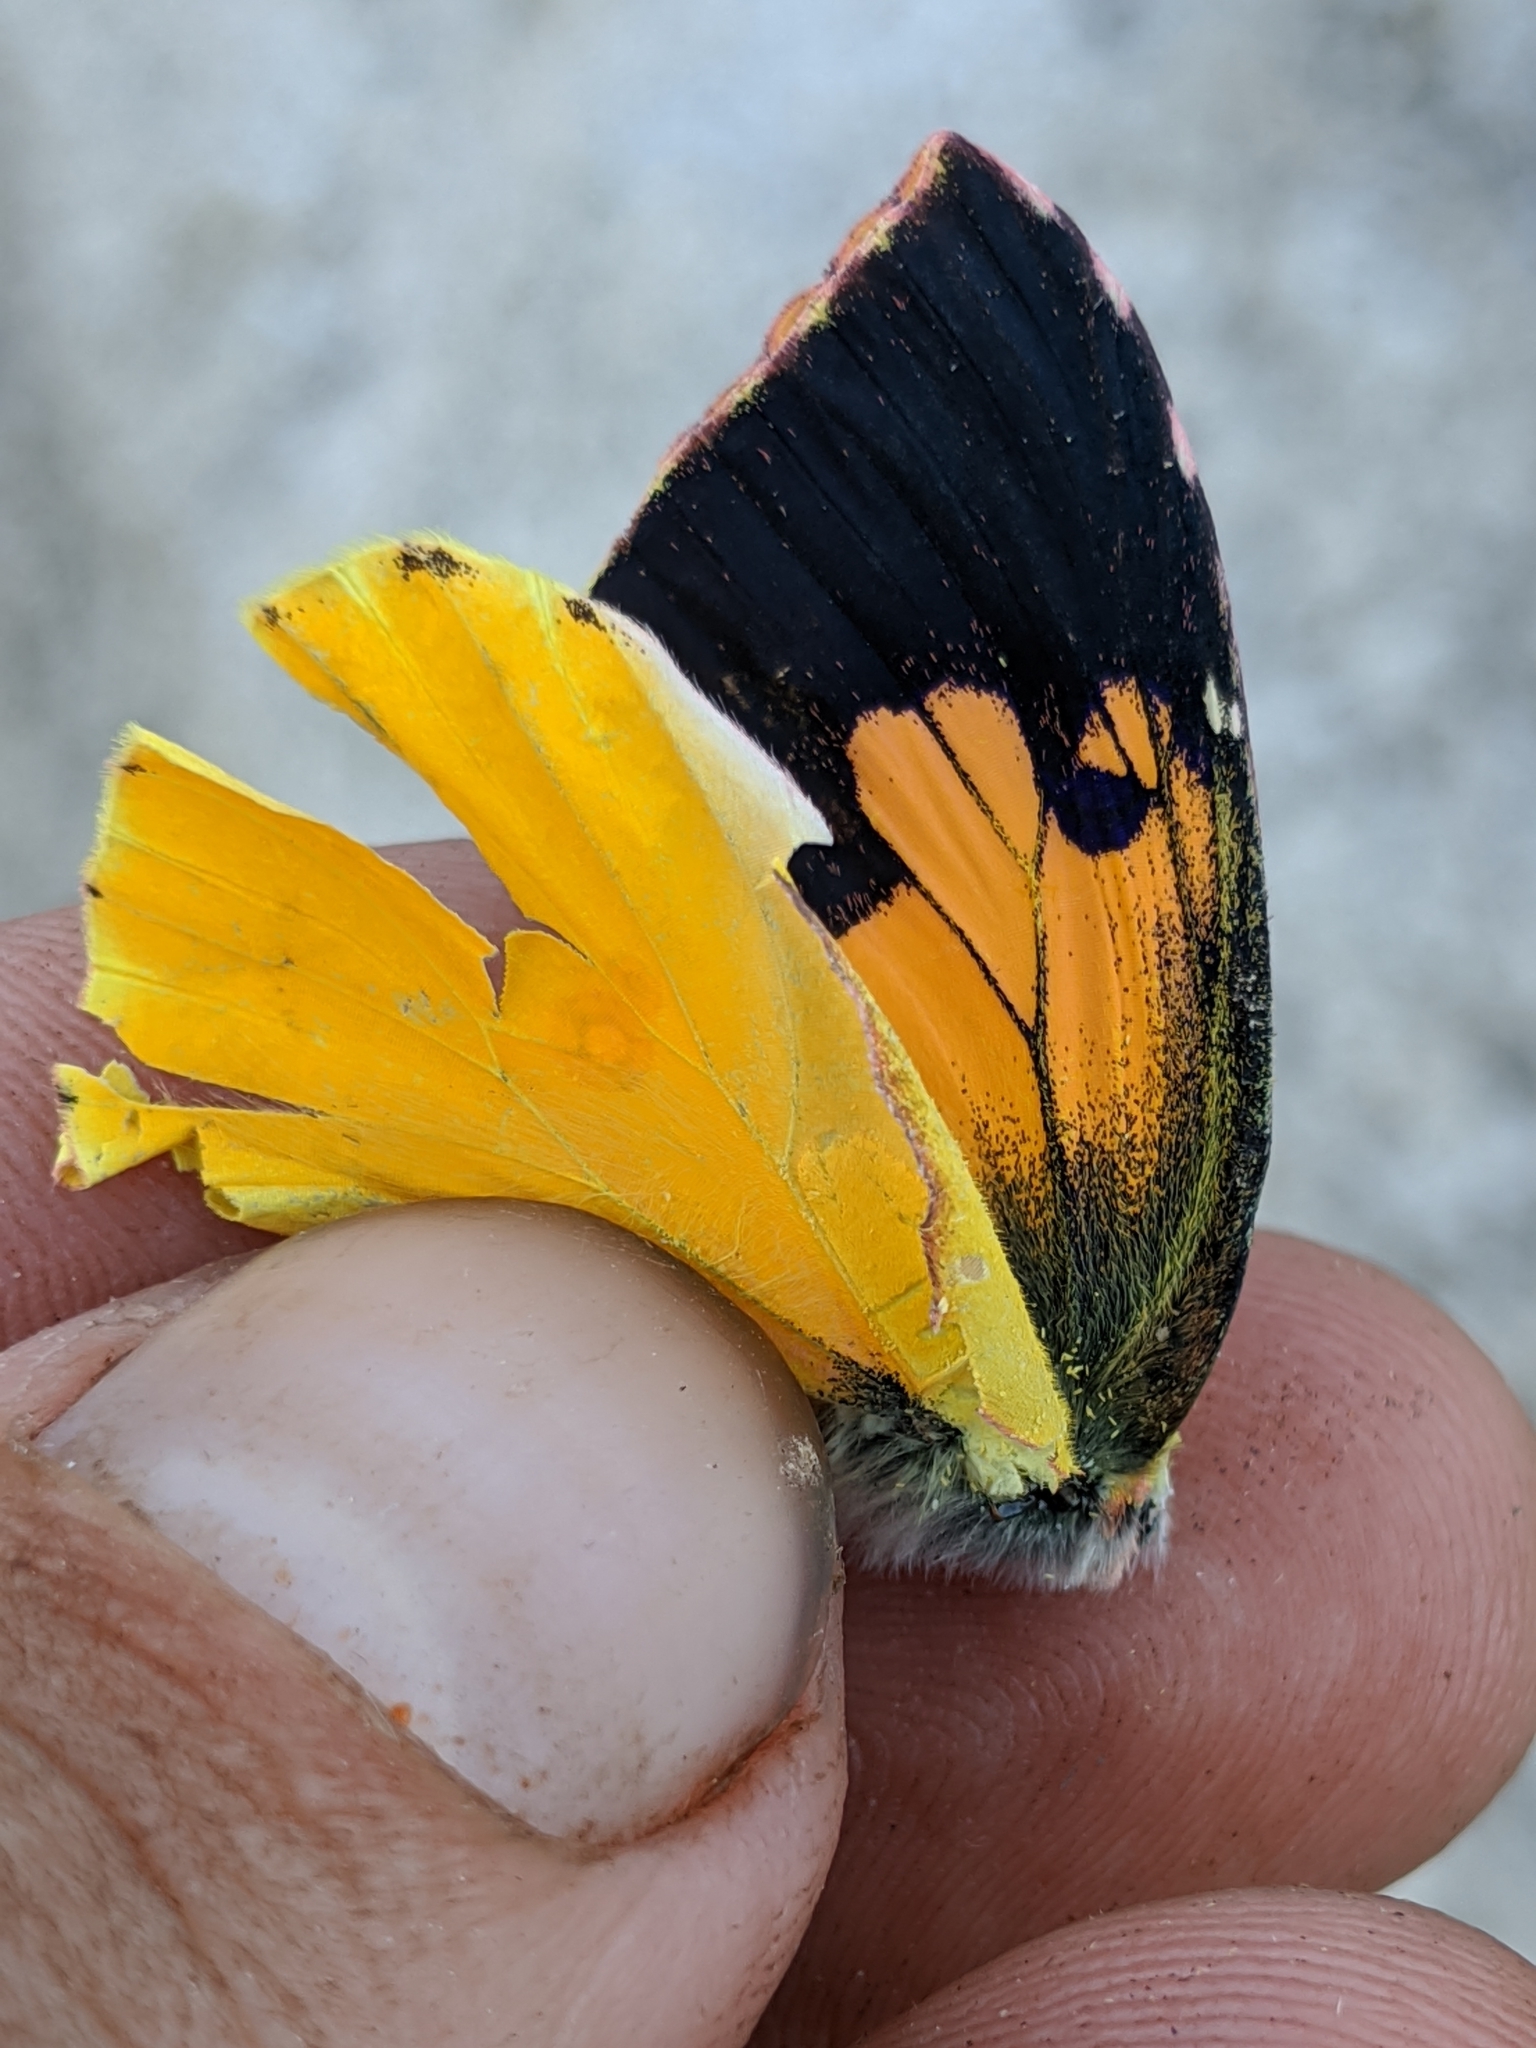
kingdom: Animalia
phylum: Arthropoda
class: Insecta
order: Lepidoptera
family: Pieridae
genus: Zerene
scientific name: Zerene eurydice
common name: California dogface
